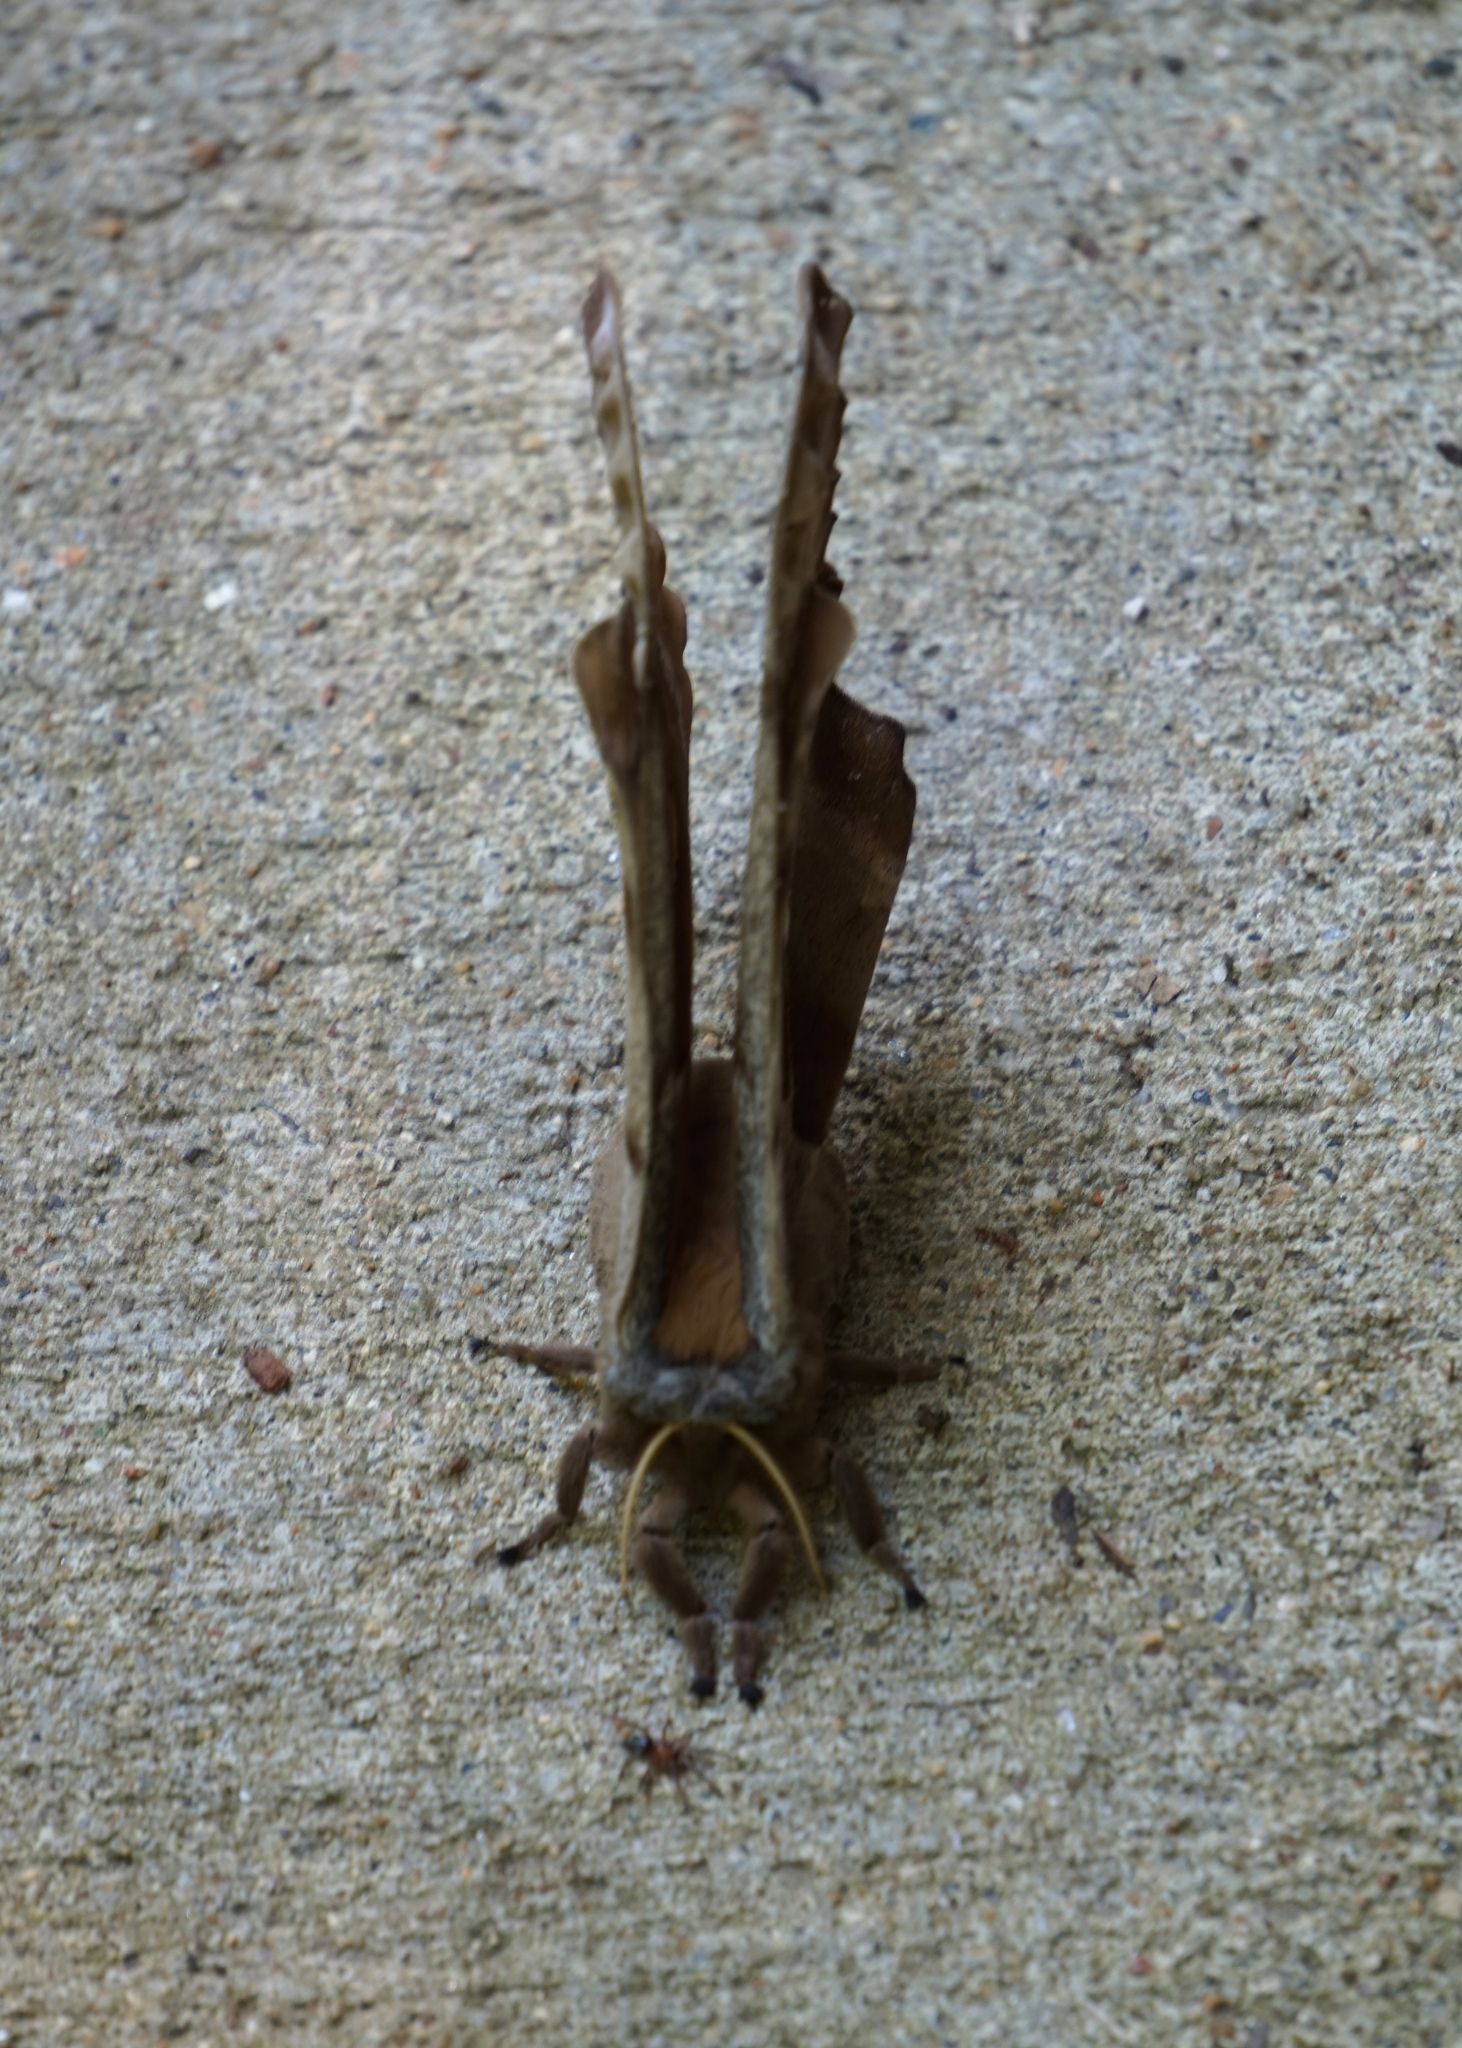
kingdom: Animalia
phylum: Arthropoda
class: Insecta
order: Lepidoptera
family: Saturniidae
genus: Antheraea
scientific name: Antheraea polyphemus
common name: Polyphemus moth
